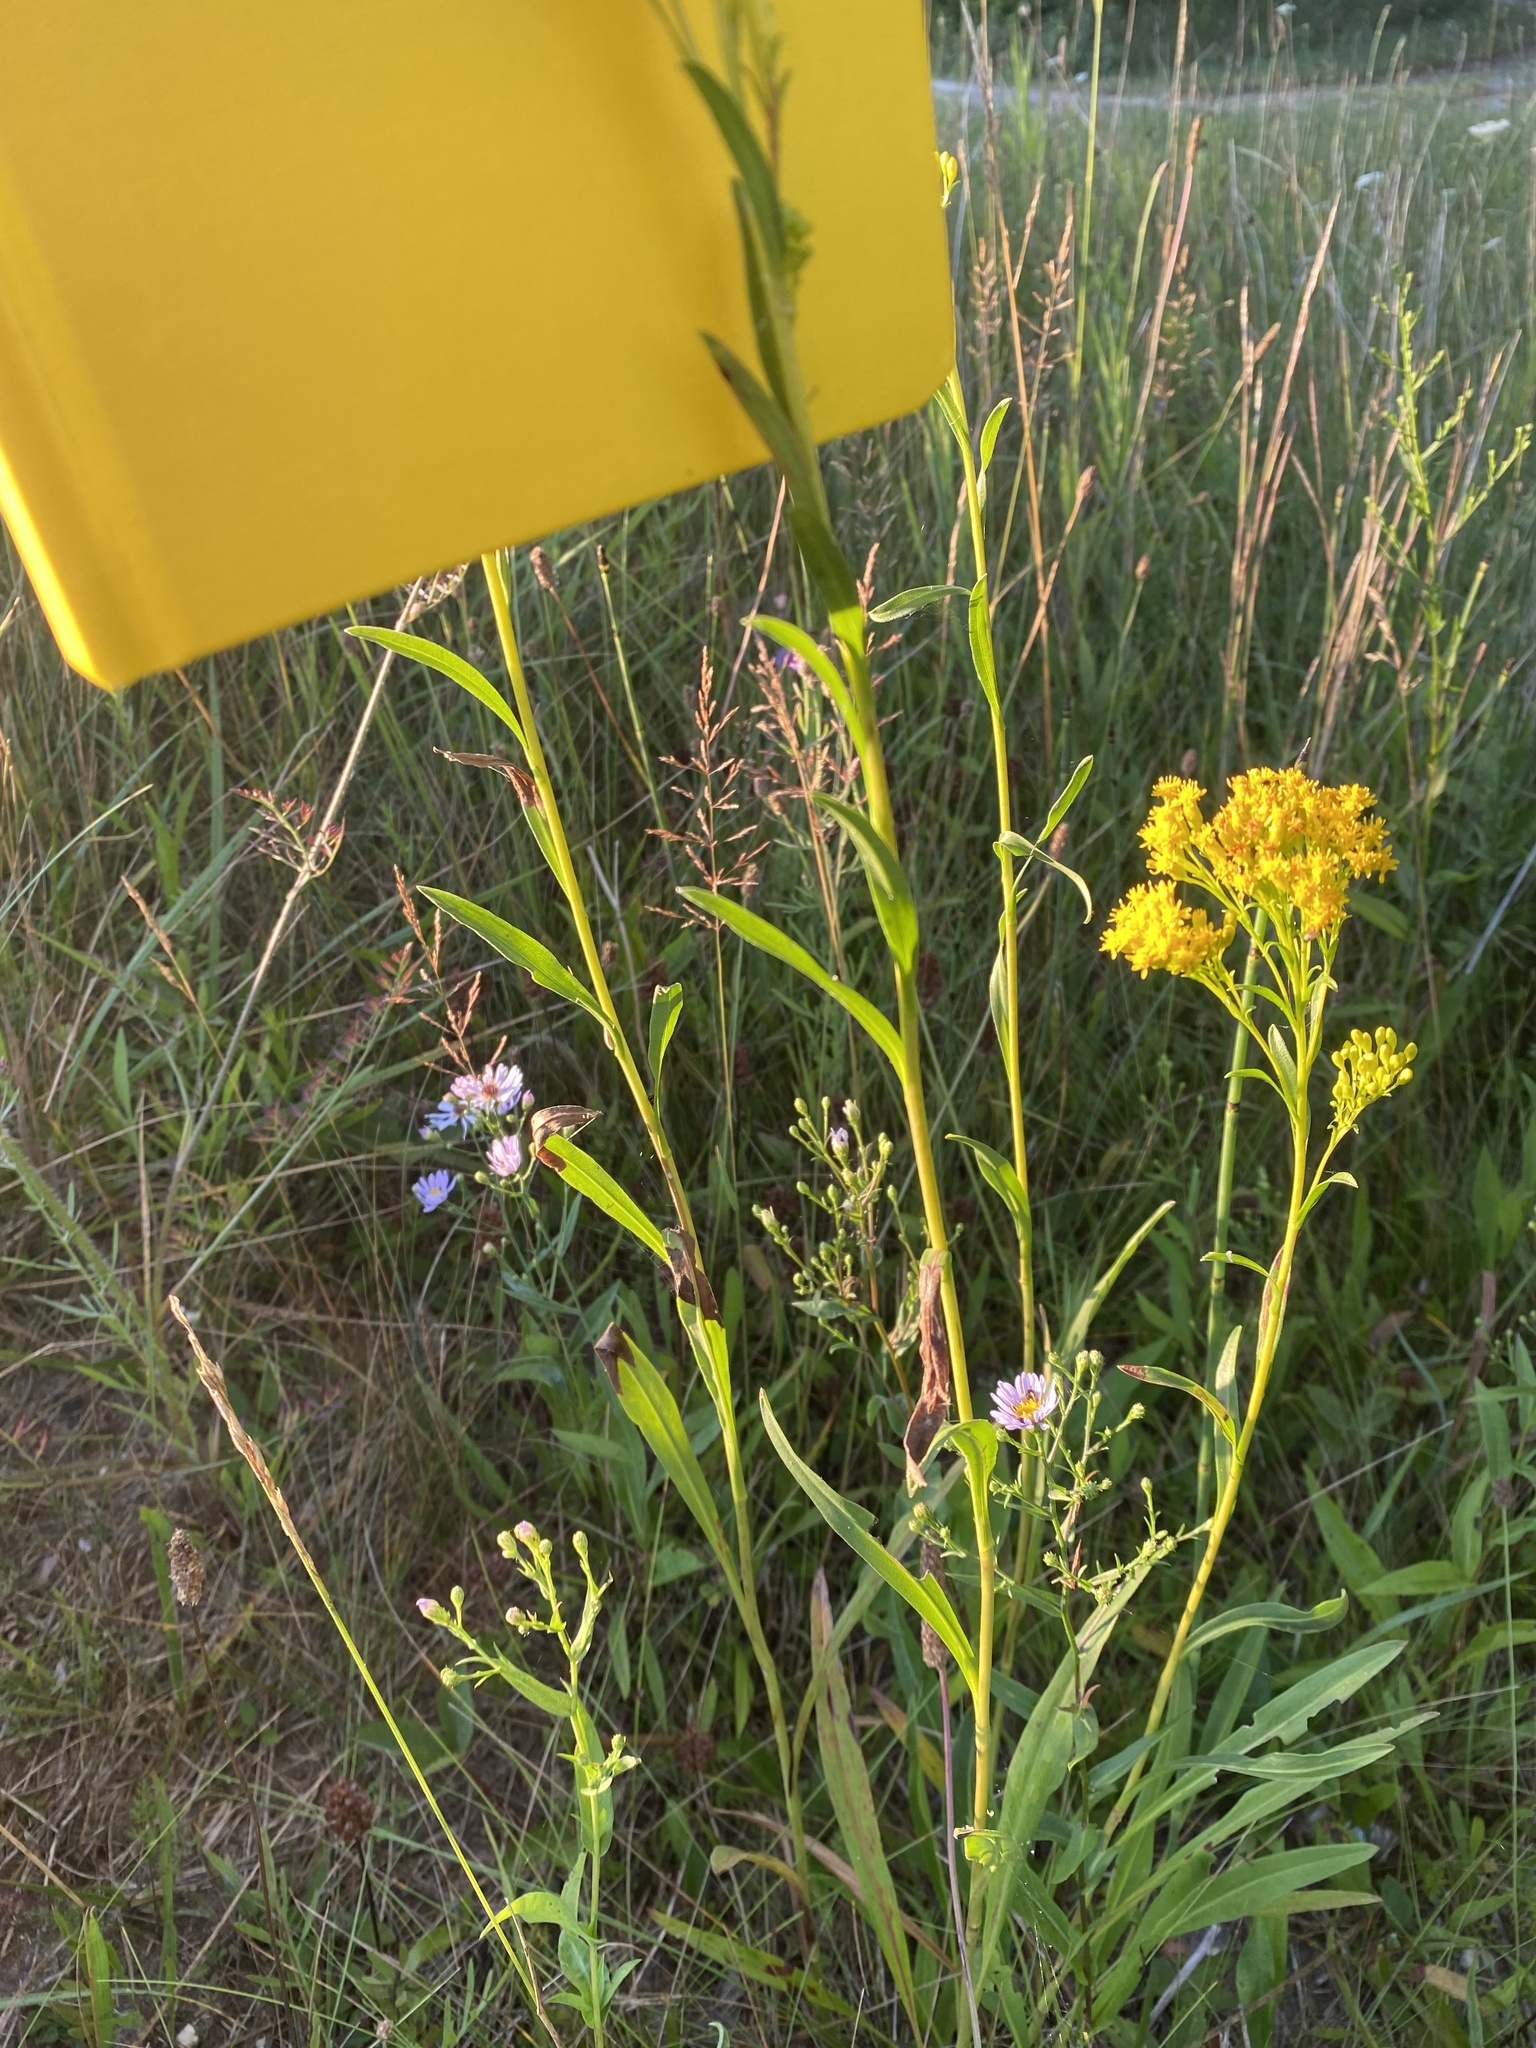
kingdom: Plantae
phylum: Tracheophyta
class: Magnoliopsida
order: Asterales
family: Asteraceae
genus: Solidago
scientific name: Solidago ohioensis
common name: Ohio goldenrod
